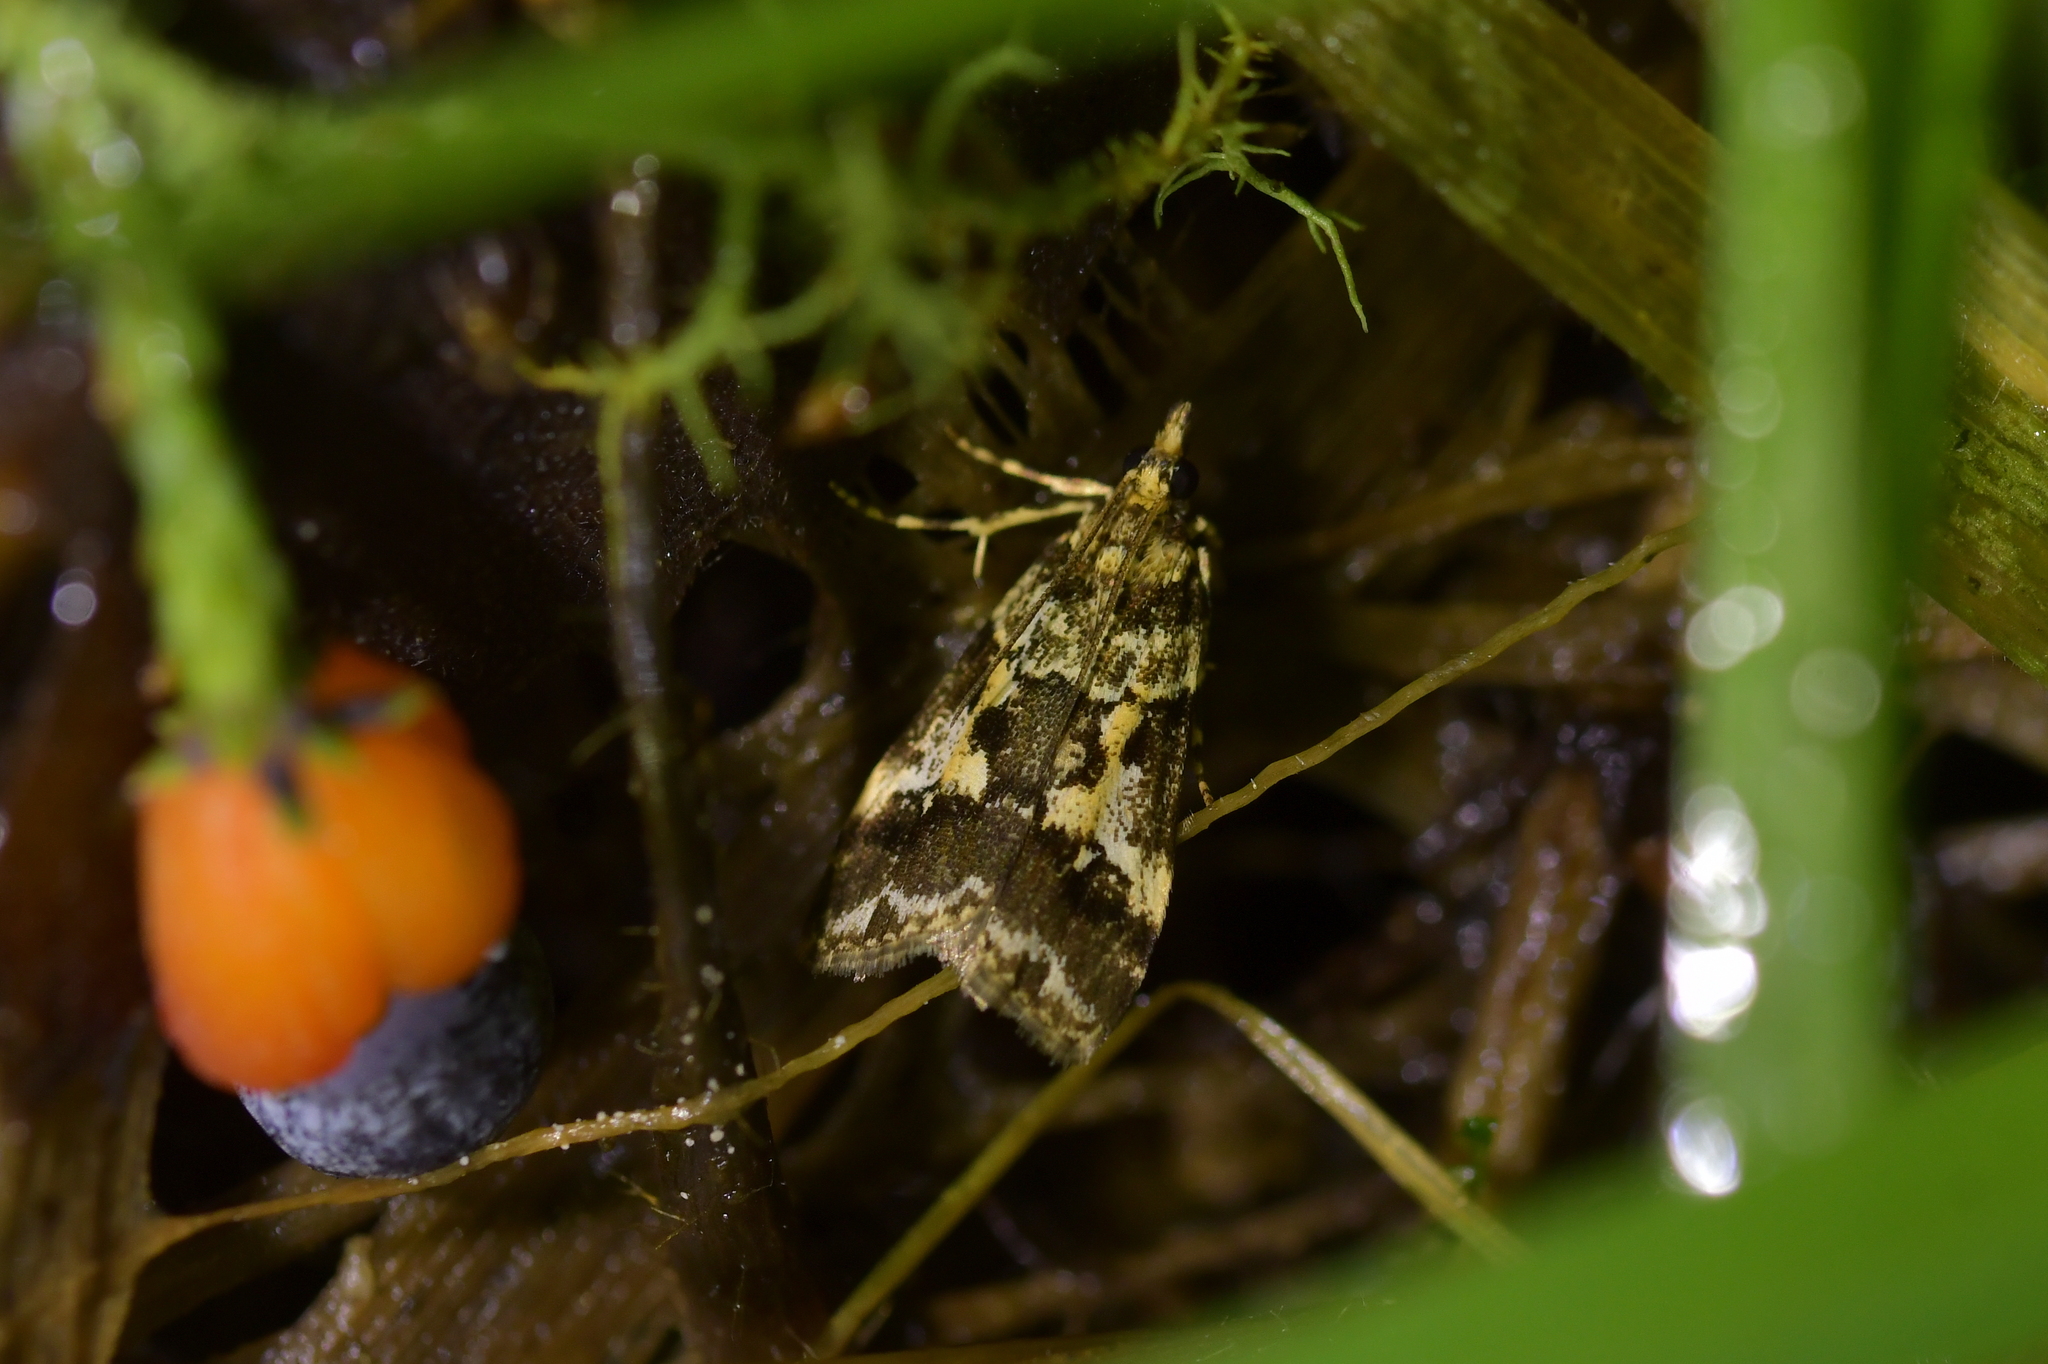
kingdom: Animalia
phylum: Arthropoda
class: Insecta
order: Lepidoptera
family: Crambidae
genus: Eudonia
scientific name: Eudonia characta
